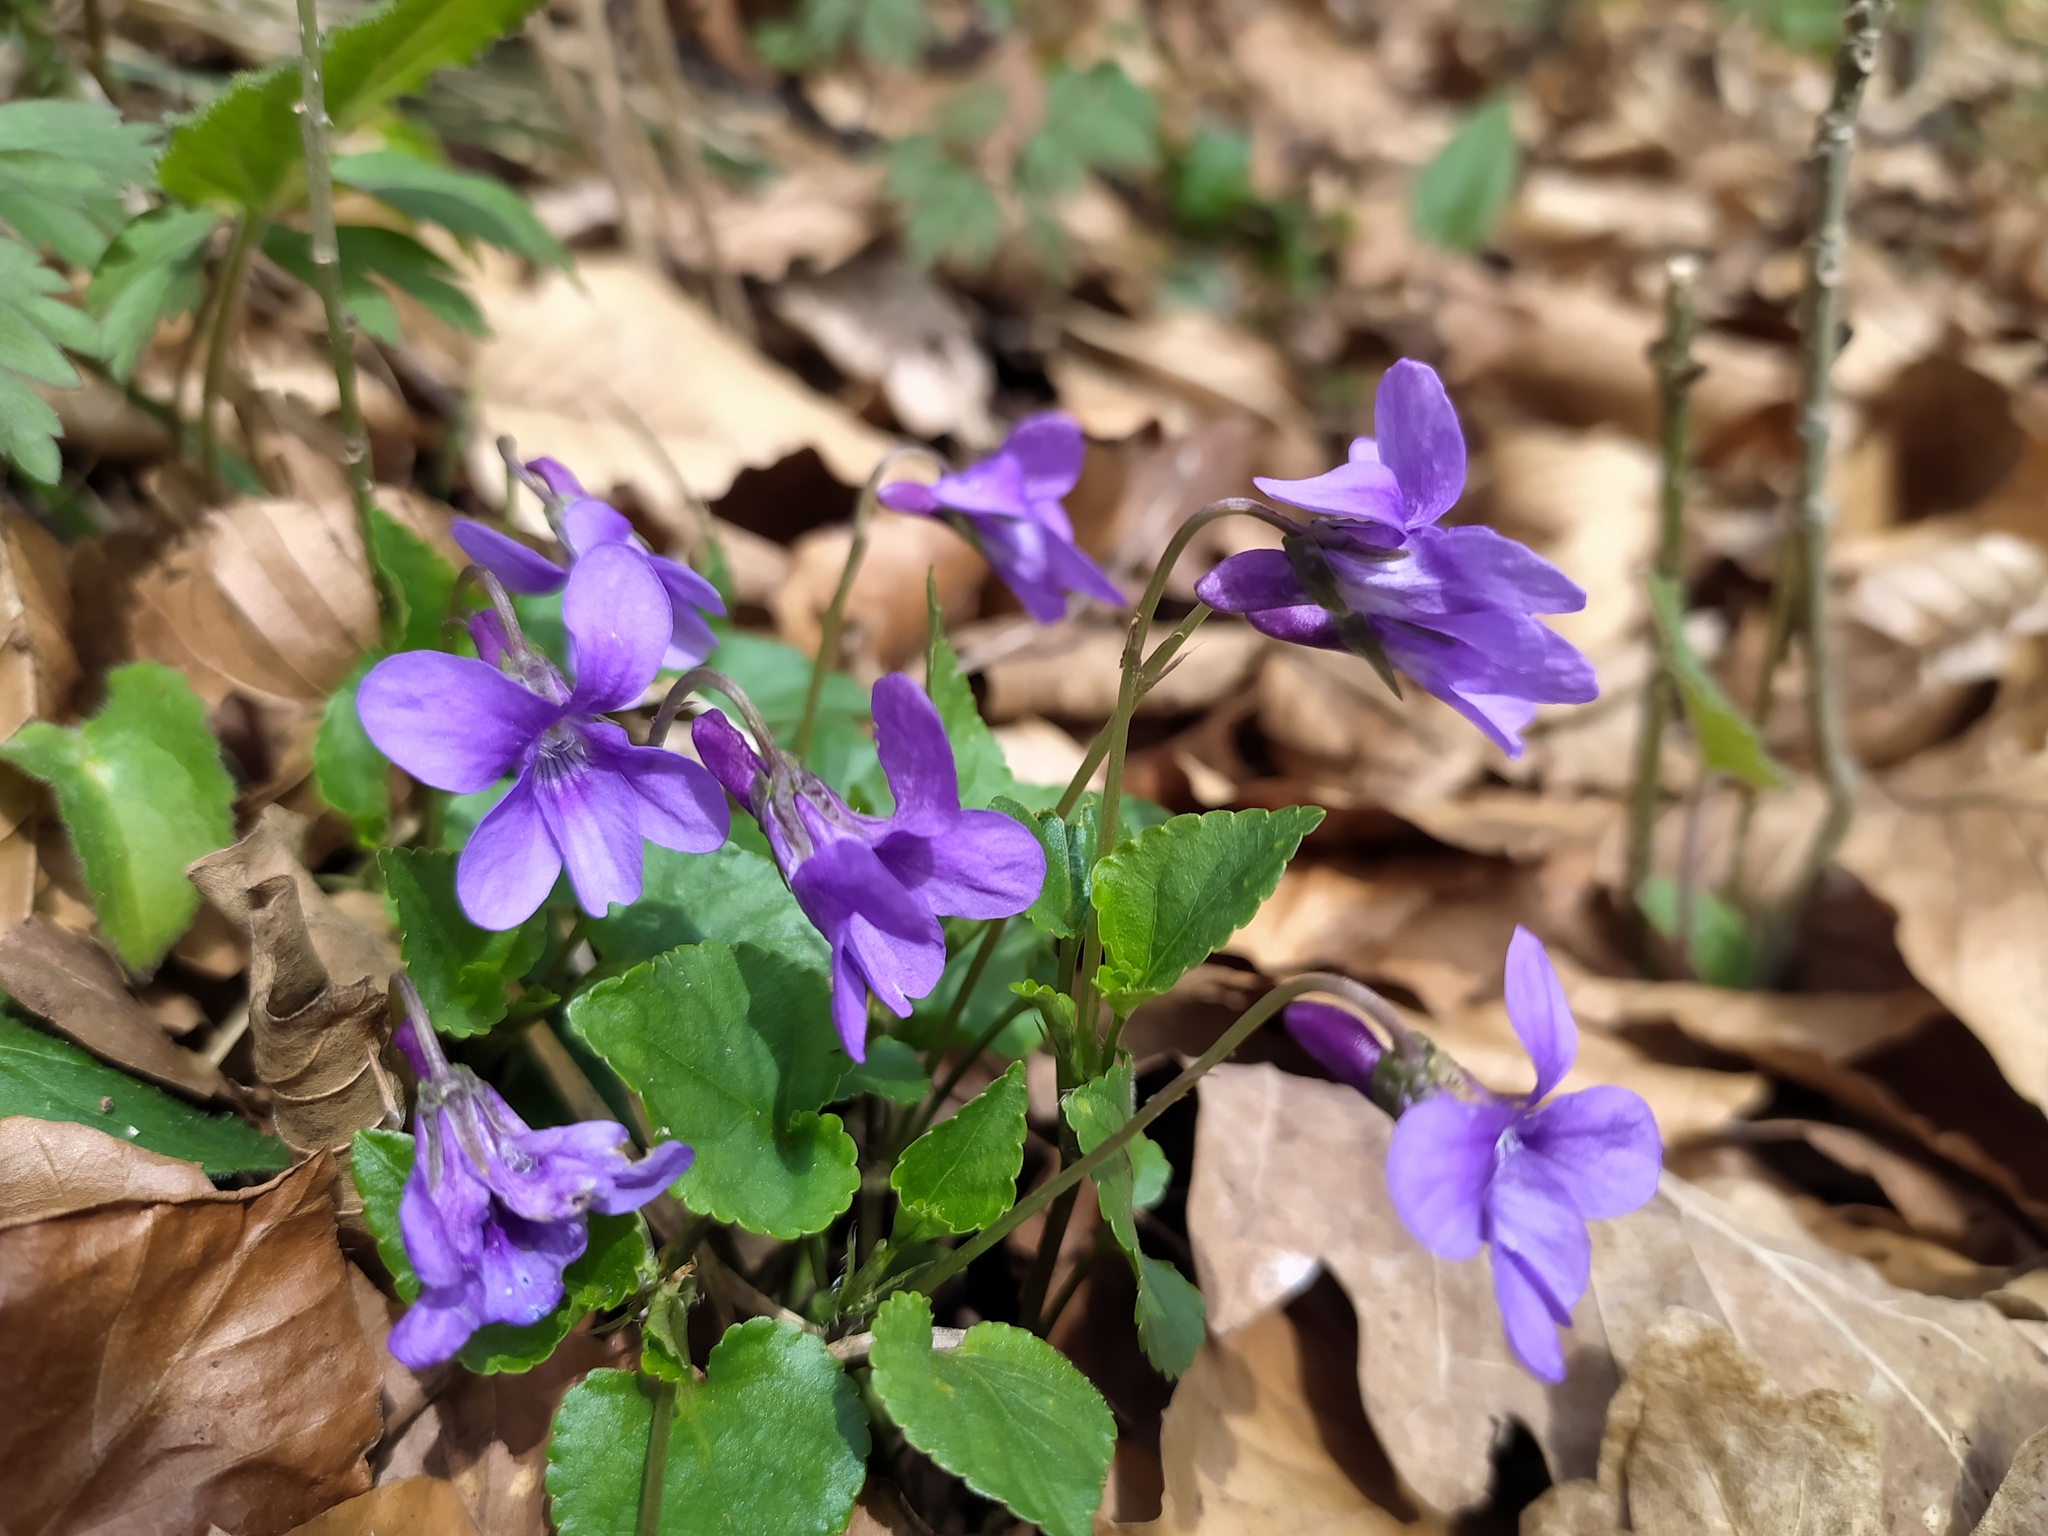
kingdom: Plantae
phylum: Tracheophyta
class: Magnoliopsida
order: Malpighiales
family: Violaceae
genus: Viola
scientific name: Viola reichenbachiana
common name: Early dog-violet
